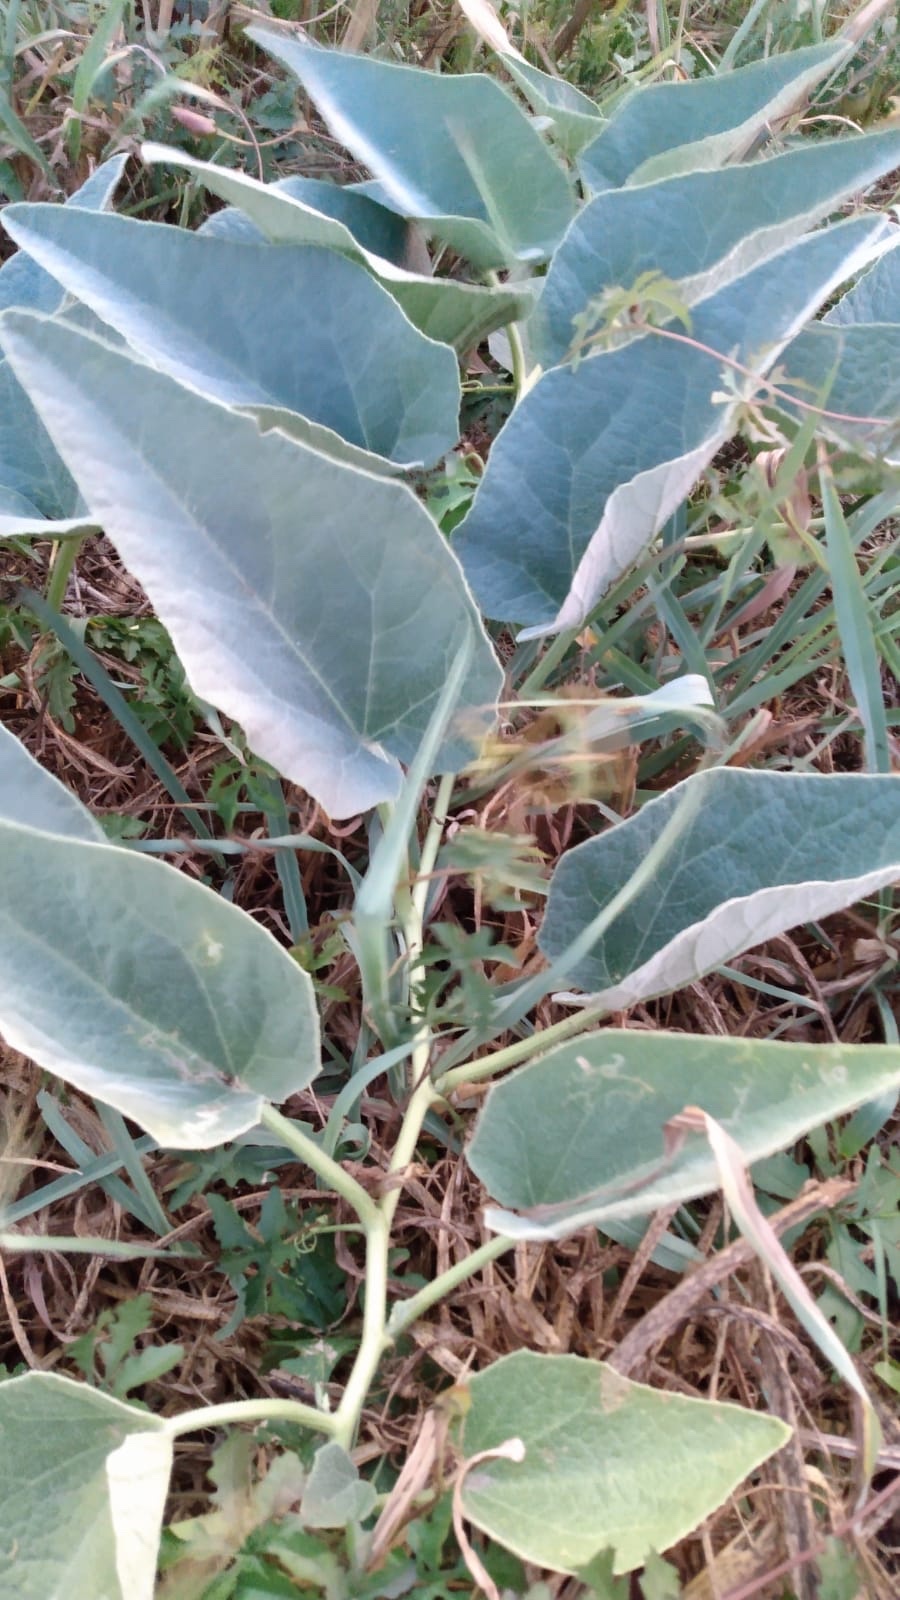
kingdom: Plantae
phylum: Tracheophyta
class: Magnoliopsida
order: Cucurbitales
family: Cucurbitaceae
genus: Cucurbita
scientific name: Cucurbita foetidissima
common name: Buffalo gourd
